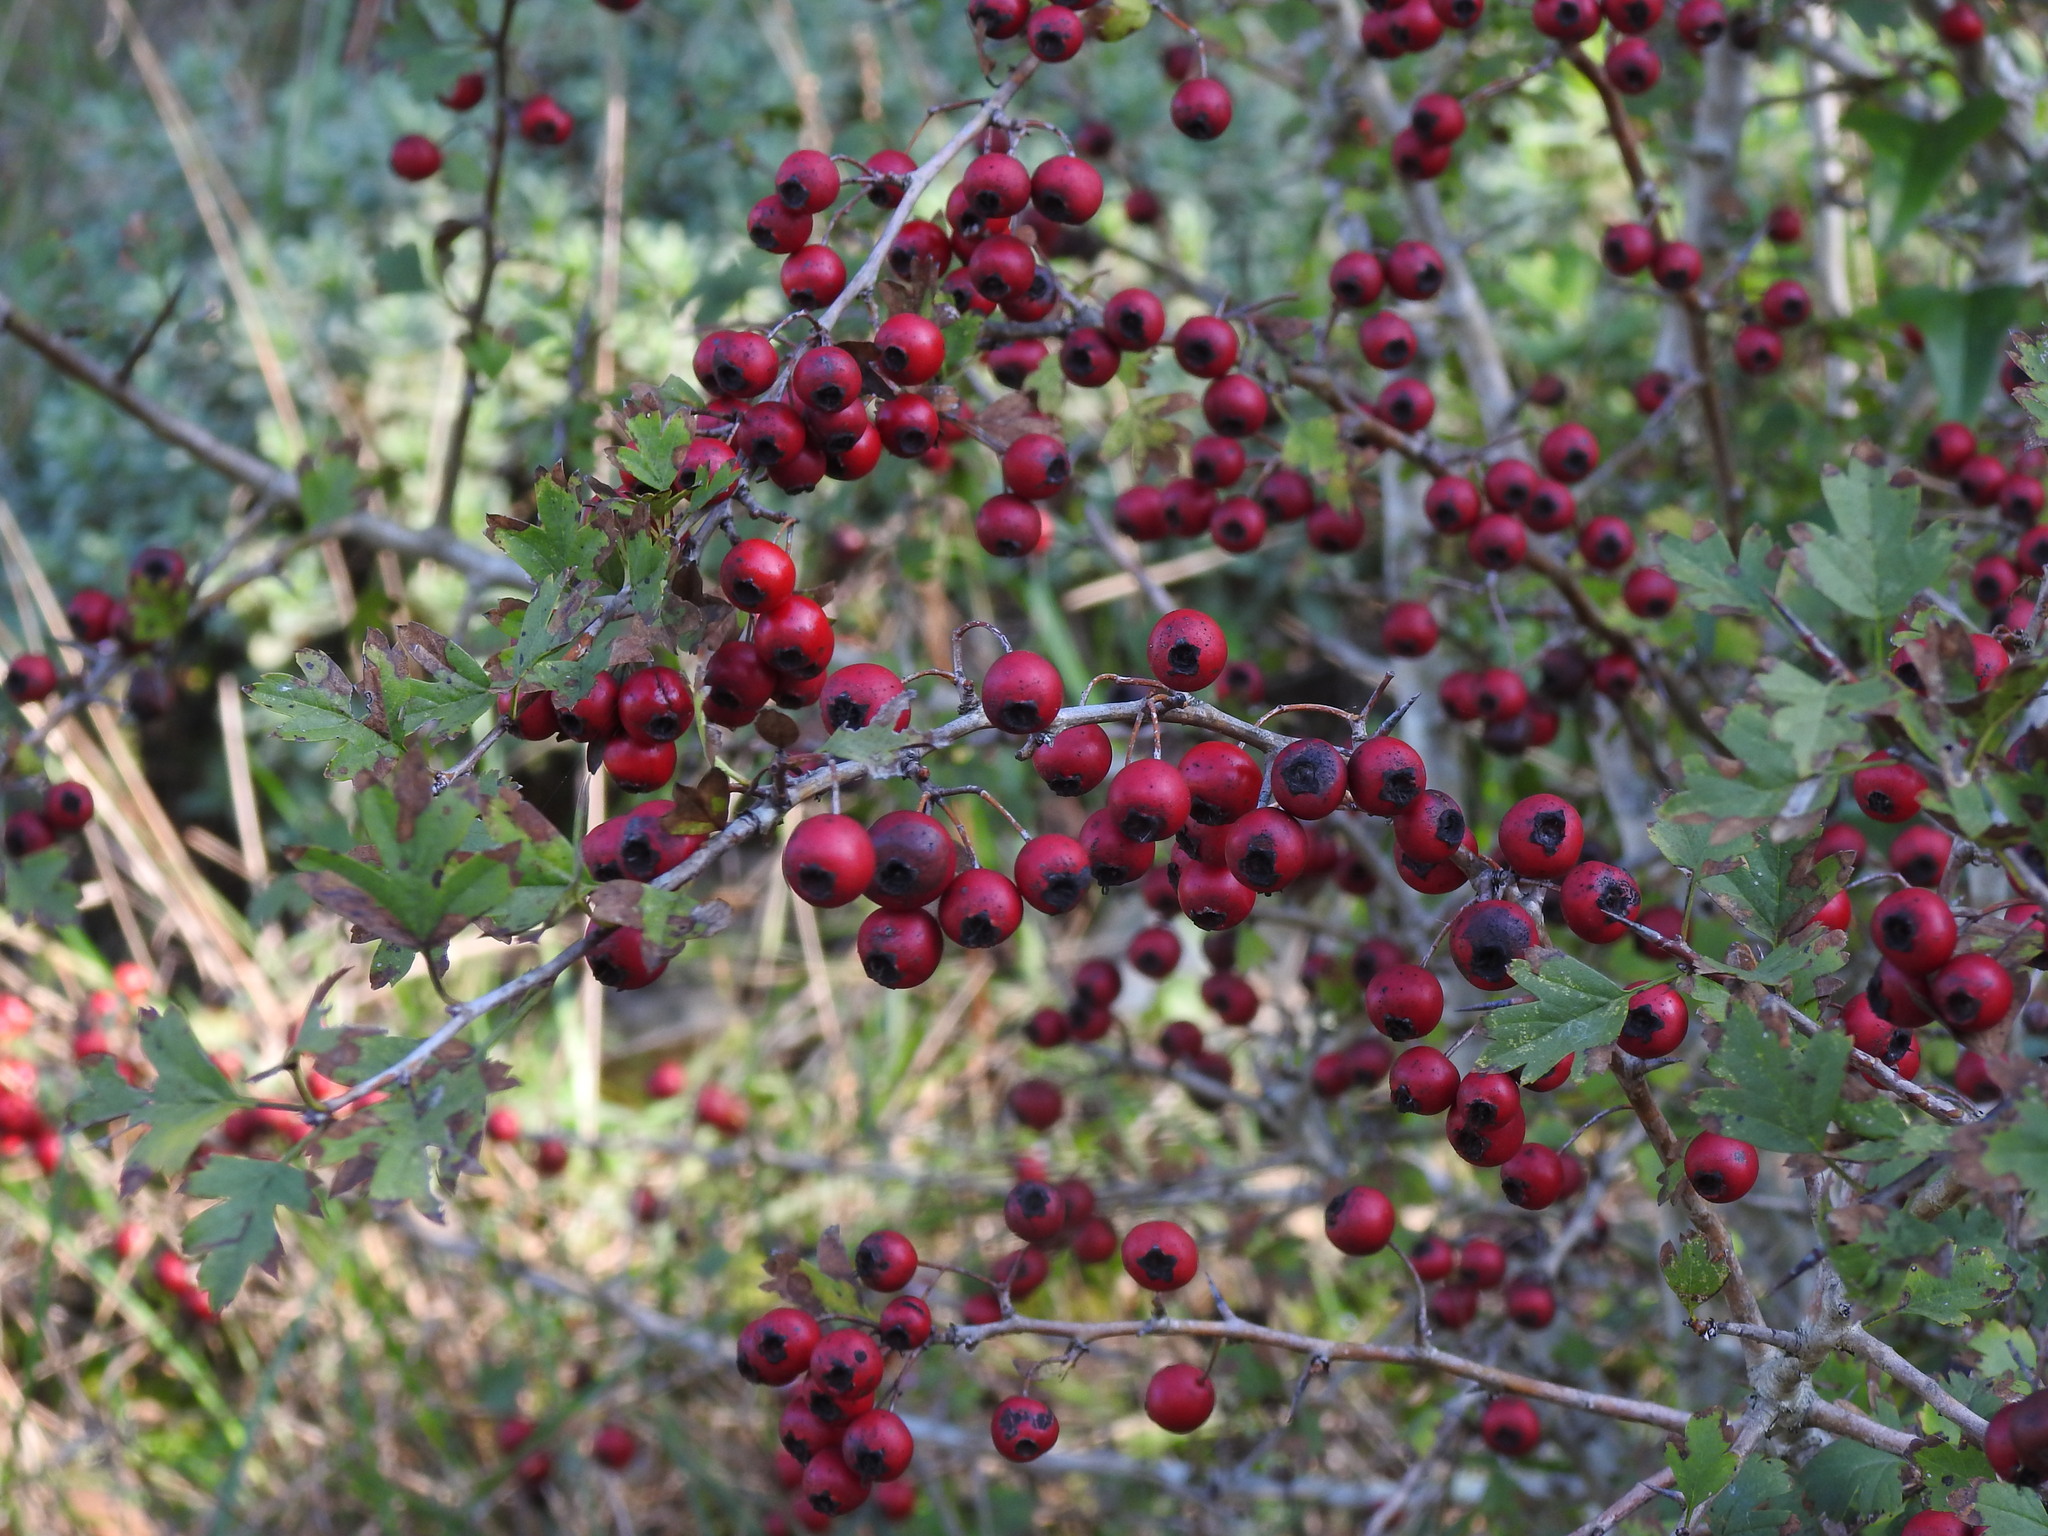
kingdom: Plantae
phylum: Tracheophyta
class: Magnoliopsida
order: Rosales
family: Rosaceae
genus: Crataegus
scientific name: Crataegus monogyna
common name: Hawthorn
